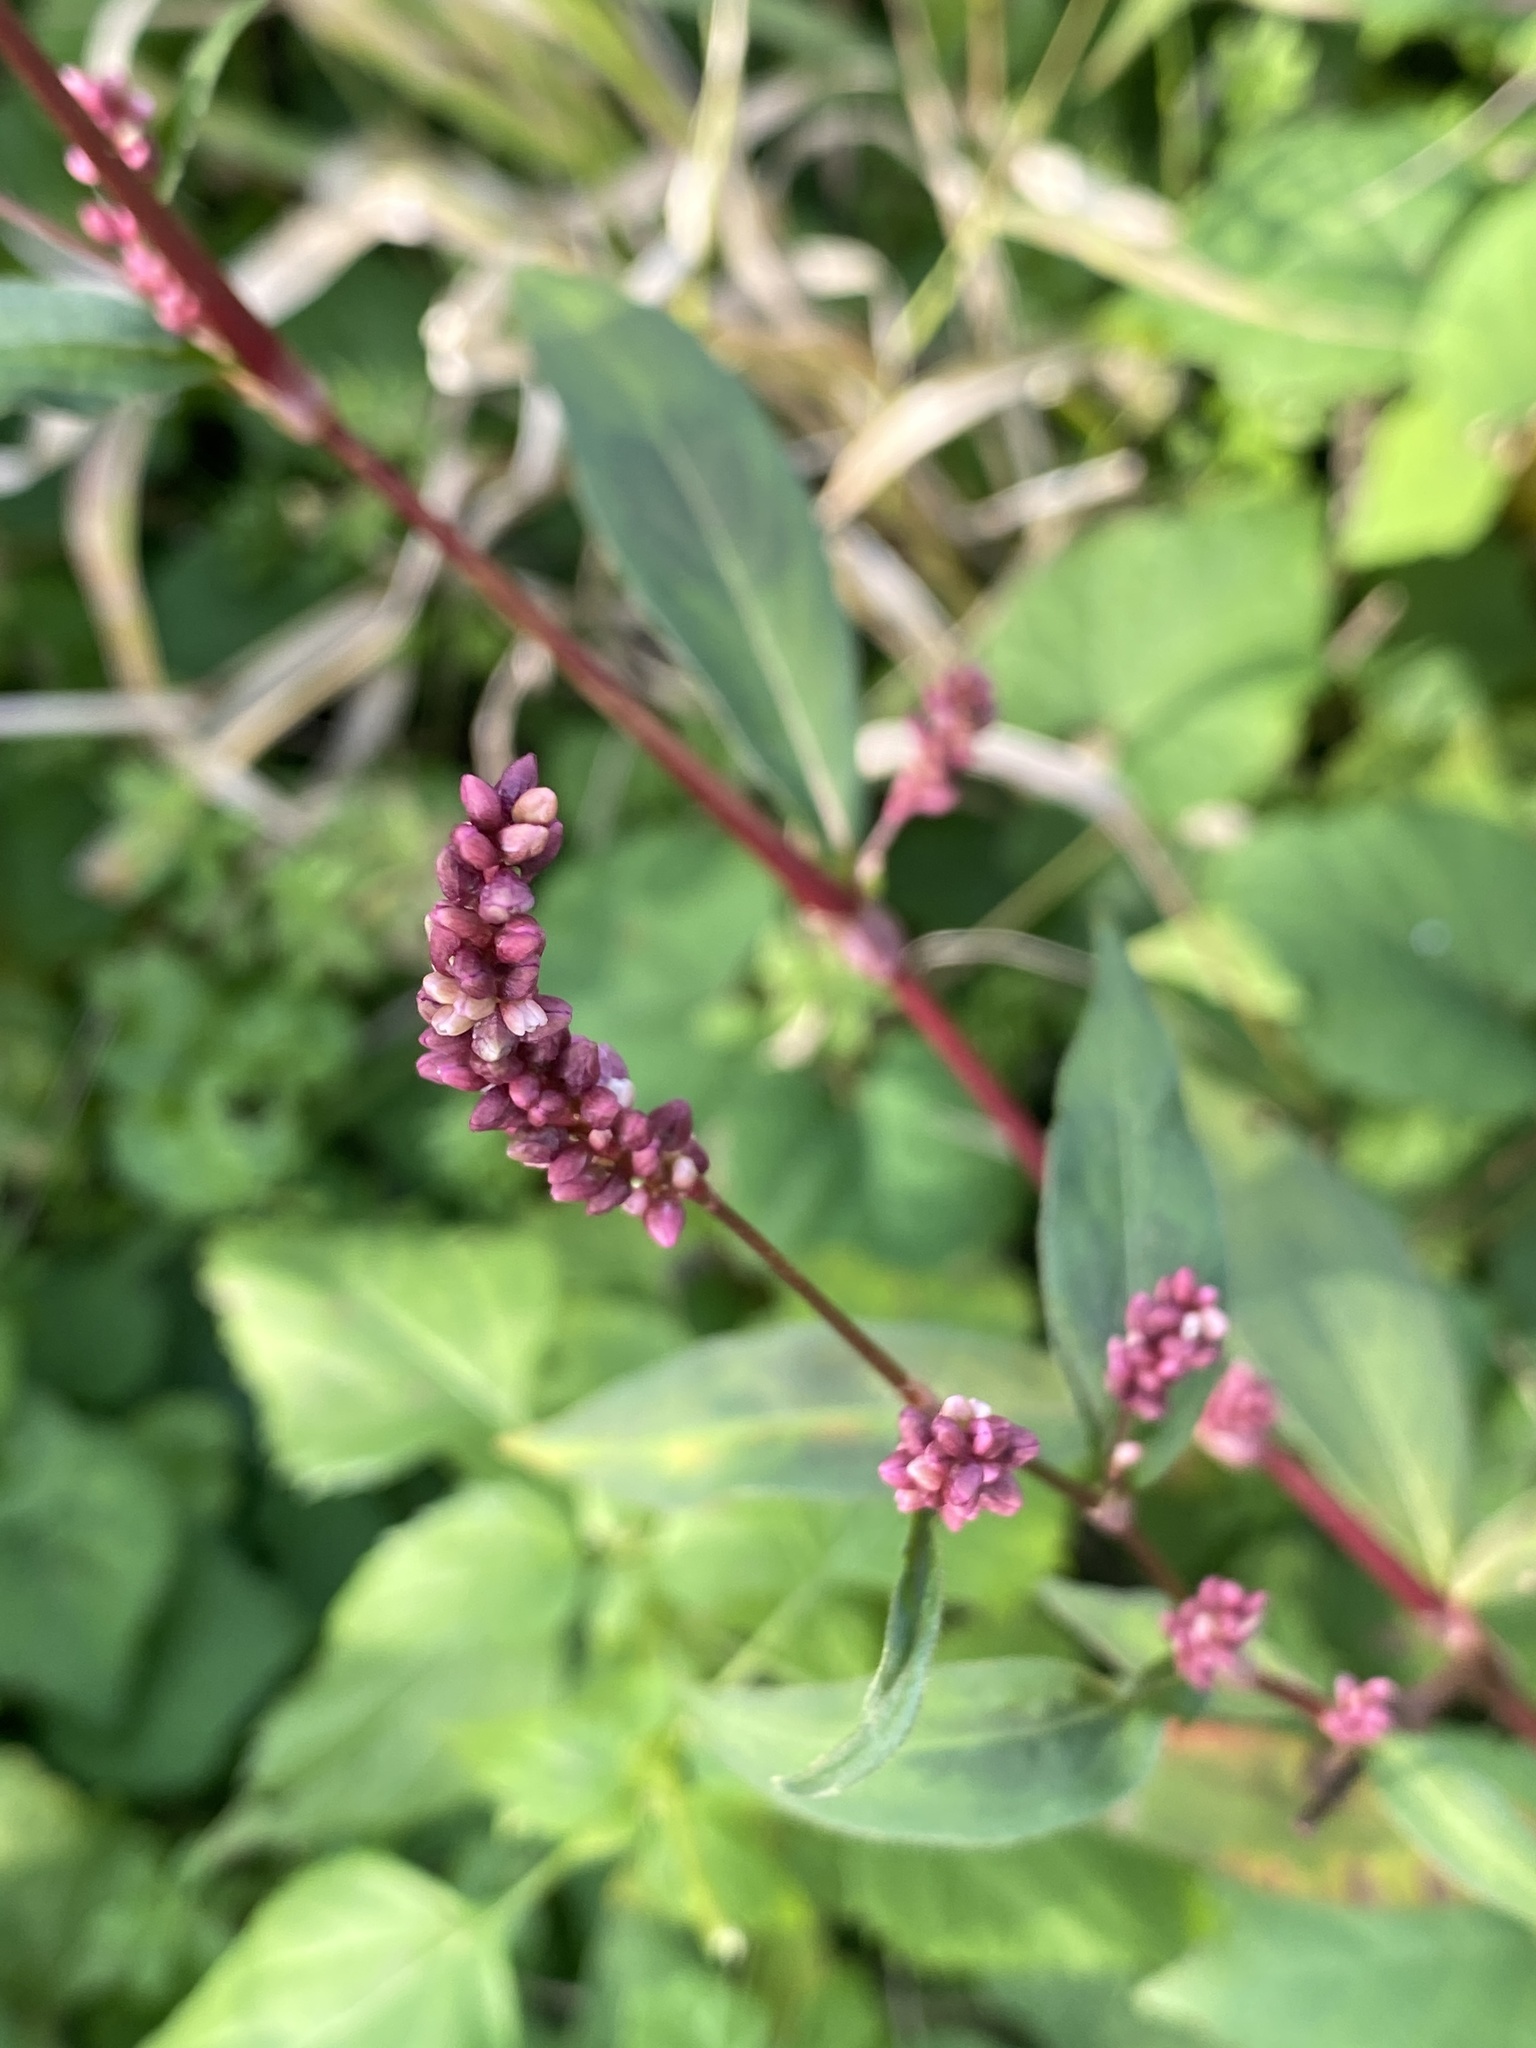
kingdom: Plantae
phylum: Tracheophyta
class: Magnoliopsida
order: Caryophyllales
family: Polygonaceae
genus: Persicaria
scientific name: Persicaria extremiorientalis
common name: Far-eastern smartweed
